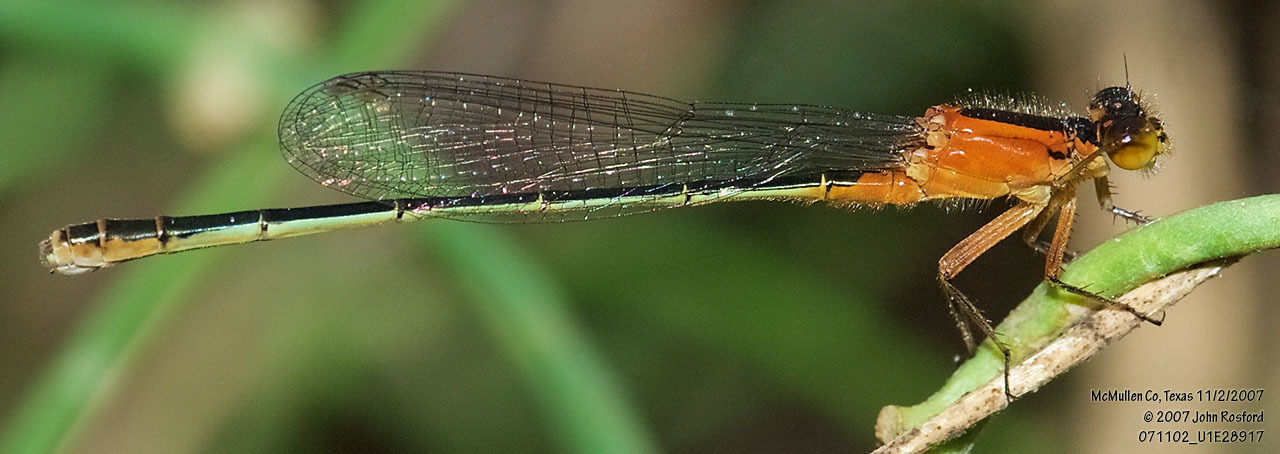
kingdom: Animalia
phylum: Arthropoda
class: Insecta
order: Odonata
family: Coenagrionidae
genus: Ischnura
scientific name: Ischnura ramburii
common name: Rambur's forktail
